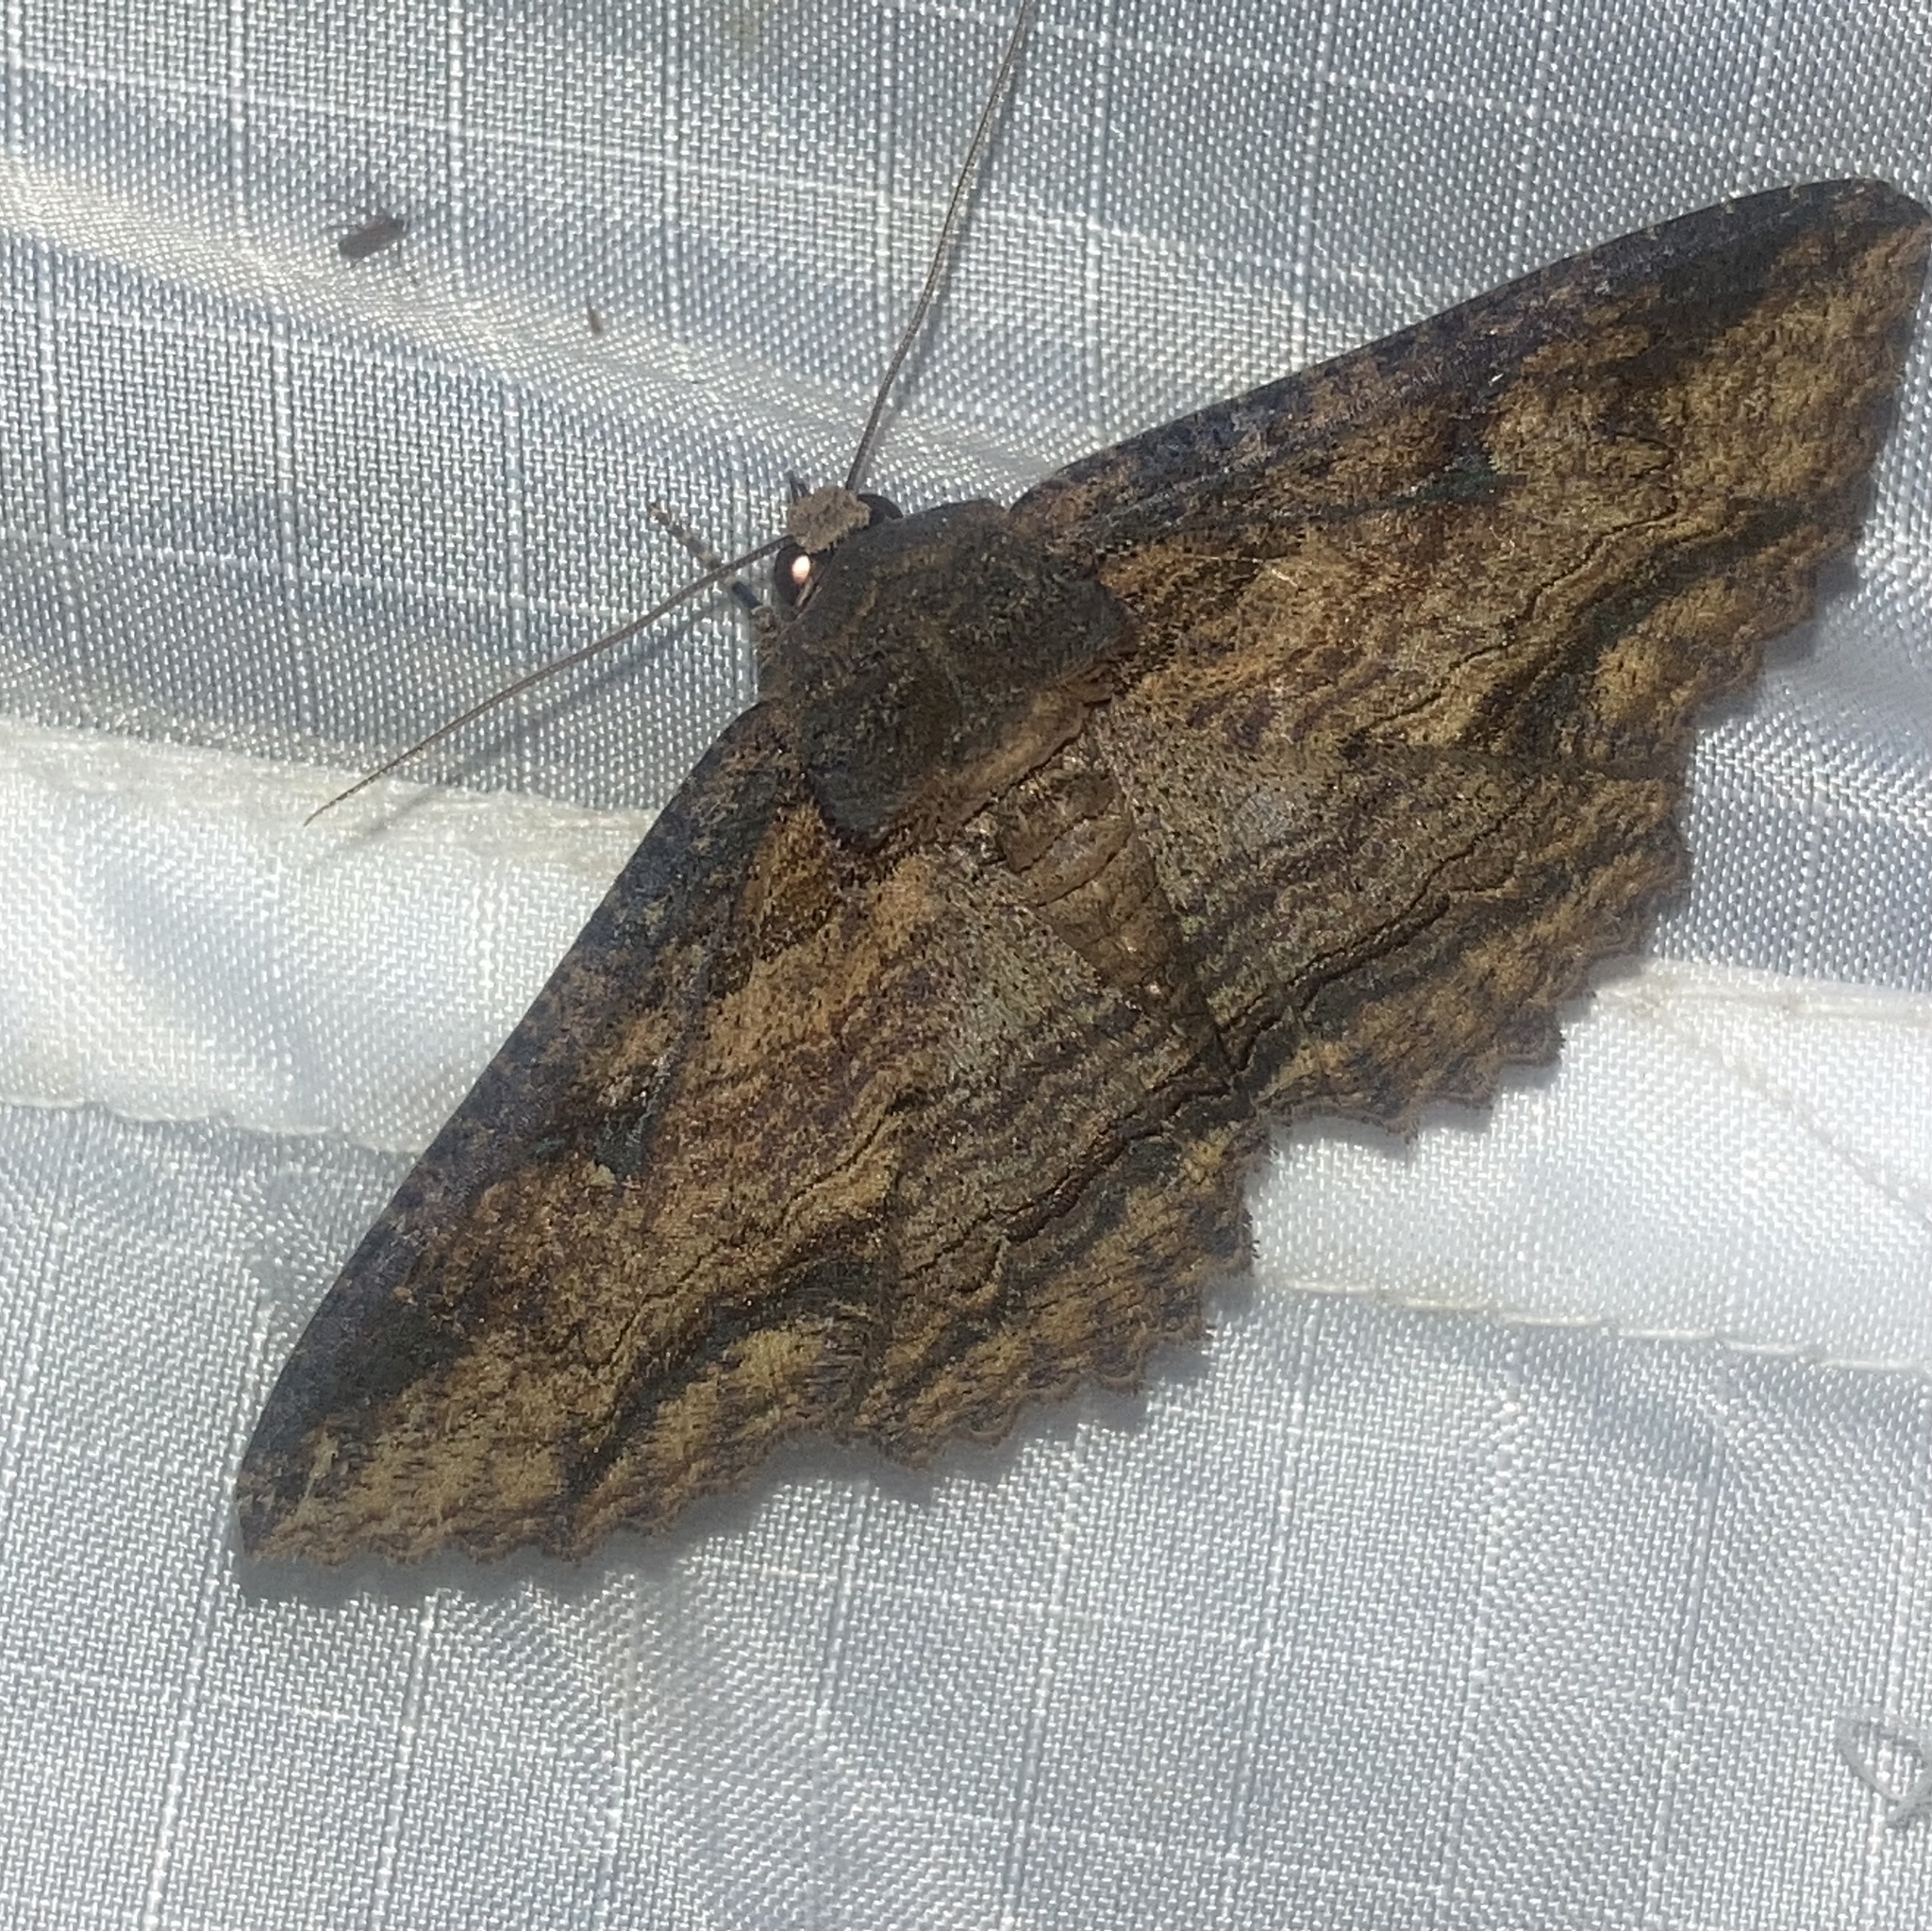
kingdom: Animalia
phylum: Arthropoda
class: Insecta
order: Lepidoptera
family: Erebidae
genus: Zale
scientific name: Zale lunata
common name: Lunate zale moth
